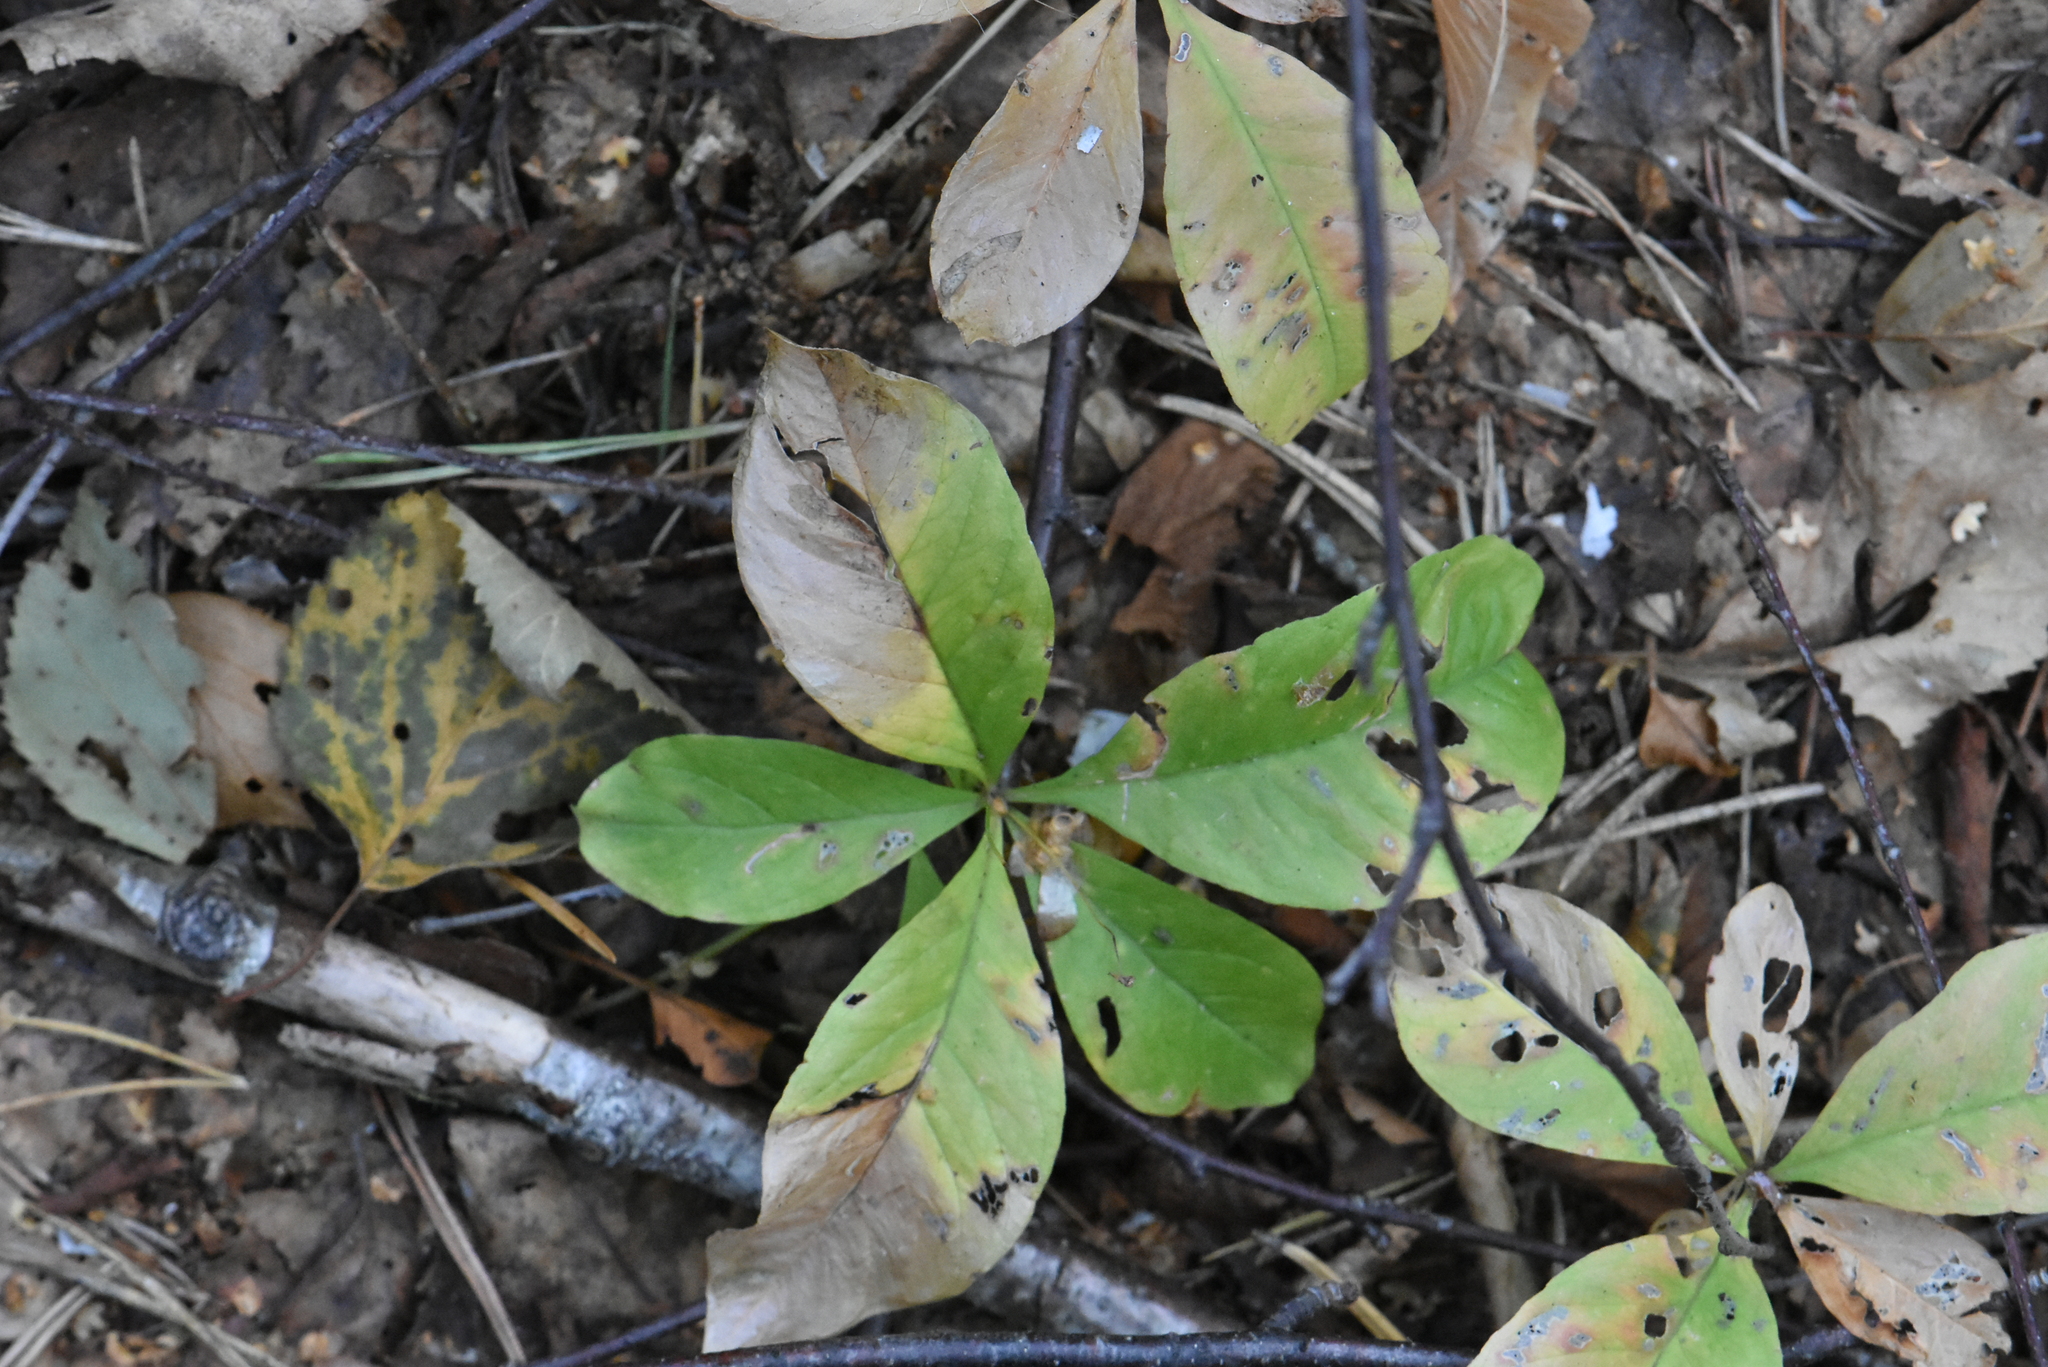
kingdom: Plantae
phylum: Tracheophyta
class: Magnoliopsida
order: Ericales
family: Primulaceae
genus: Lysimachia
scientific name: Lysimachia europaea
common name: Arctic starflower
